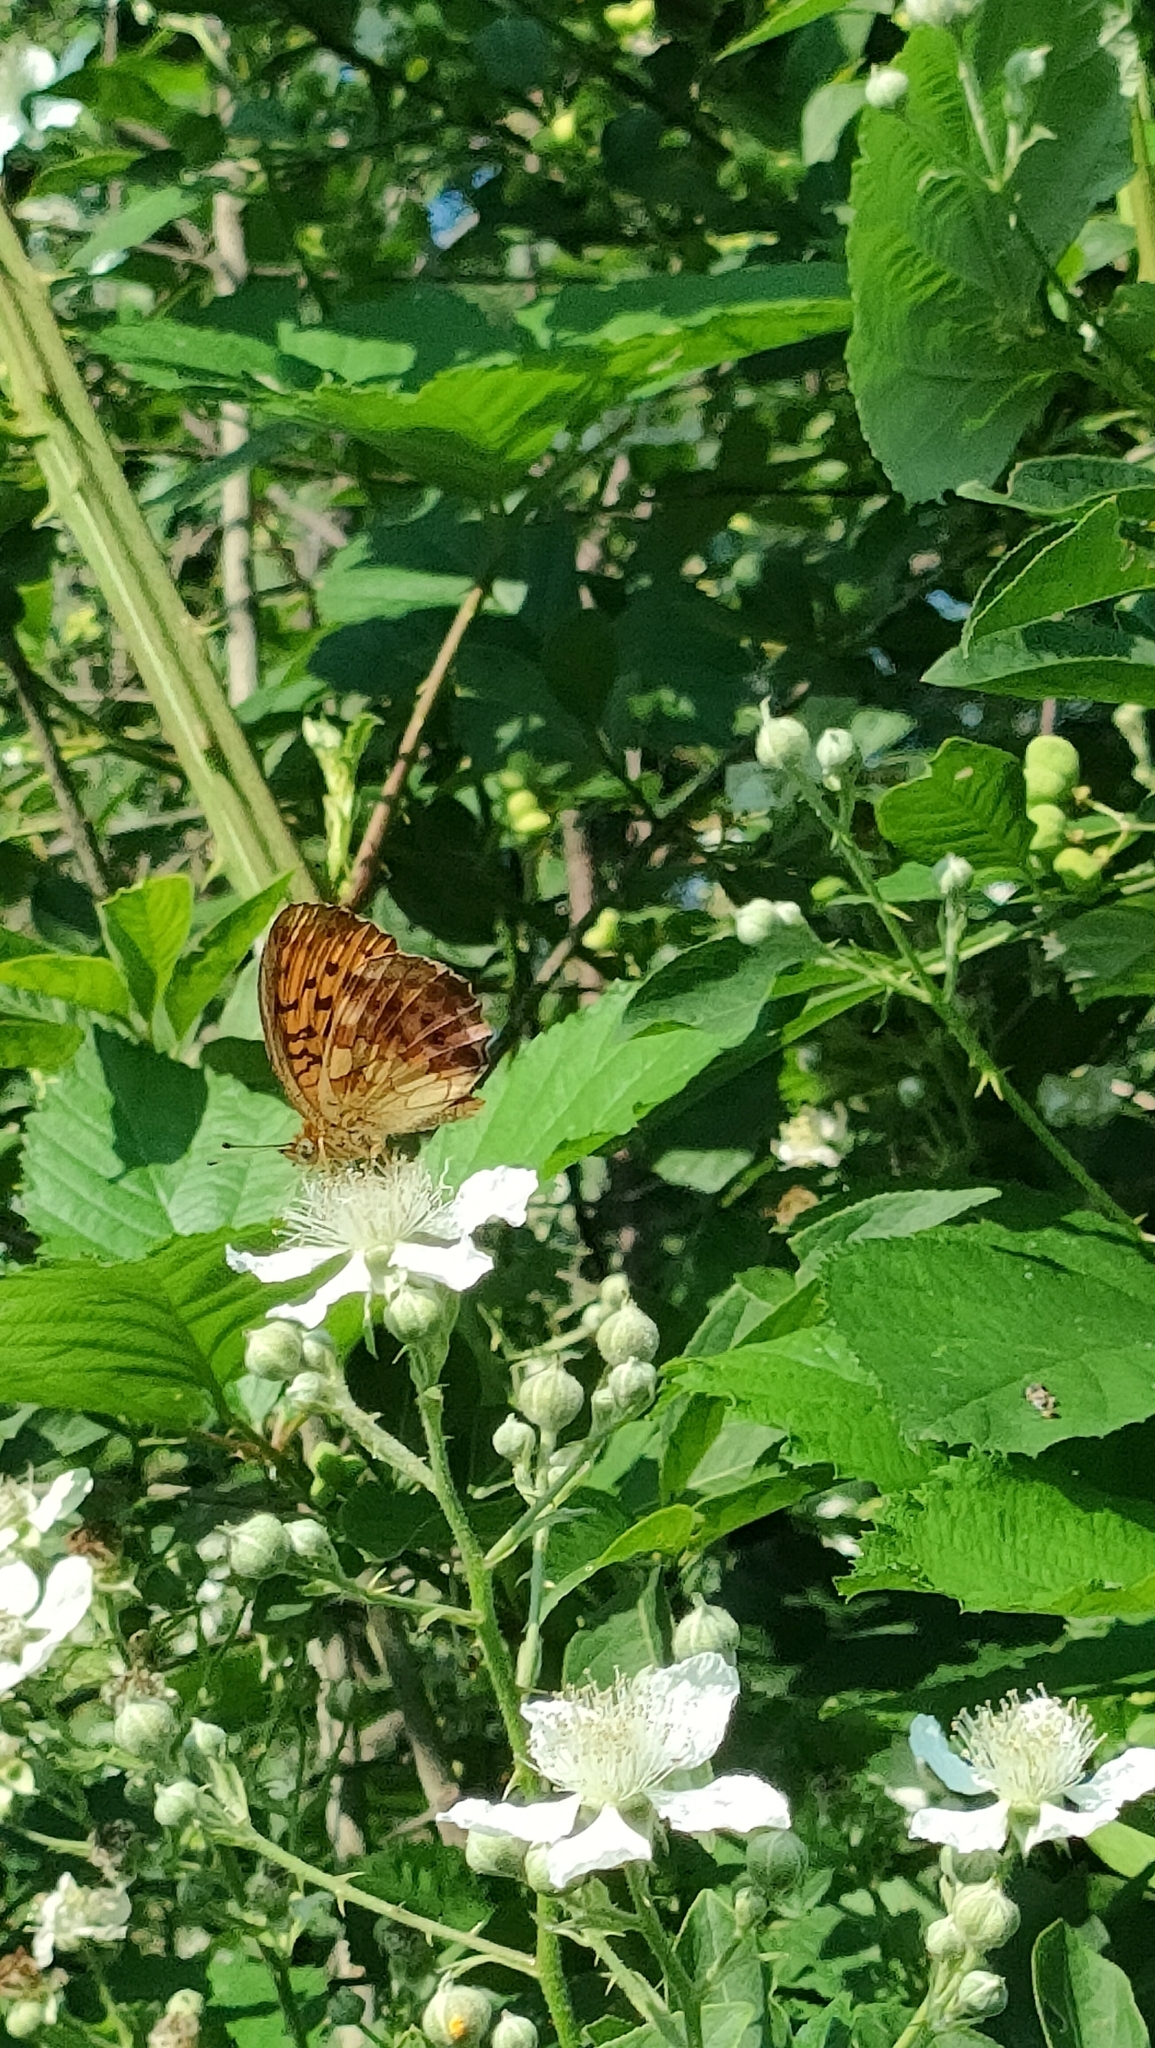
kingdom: Animalia
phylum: Arthropoda
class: Insecta
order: Lepidoptera
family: Nymphalidae
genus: Brenthis
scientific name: Brenthis daphne
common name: Marbled fritillary
